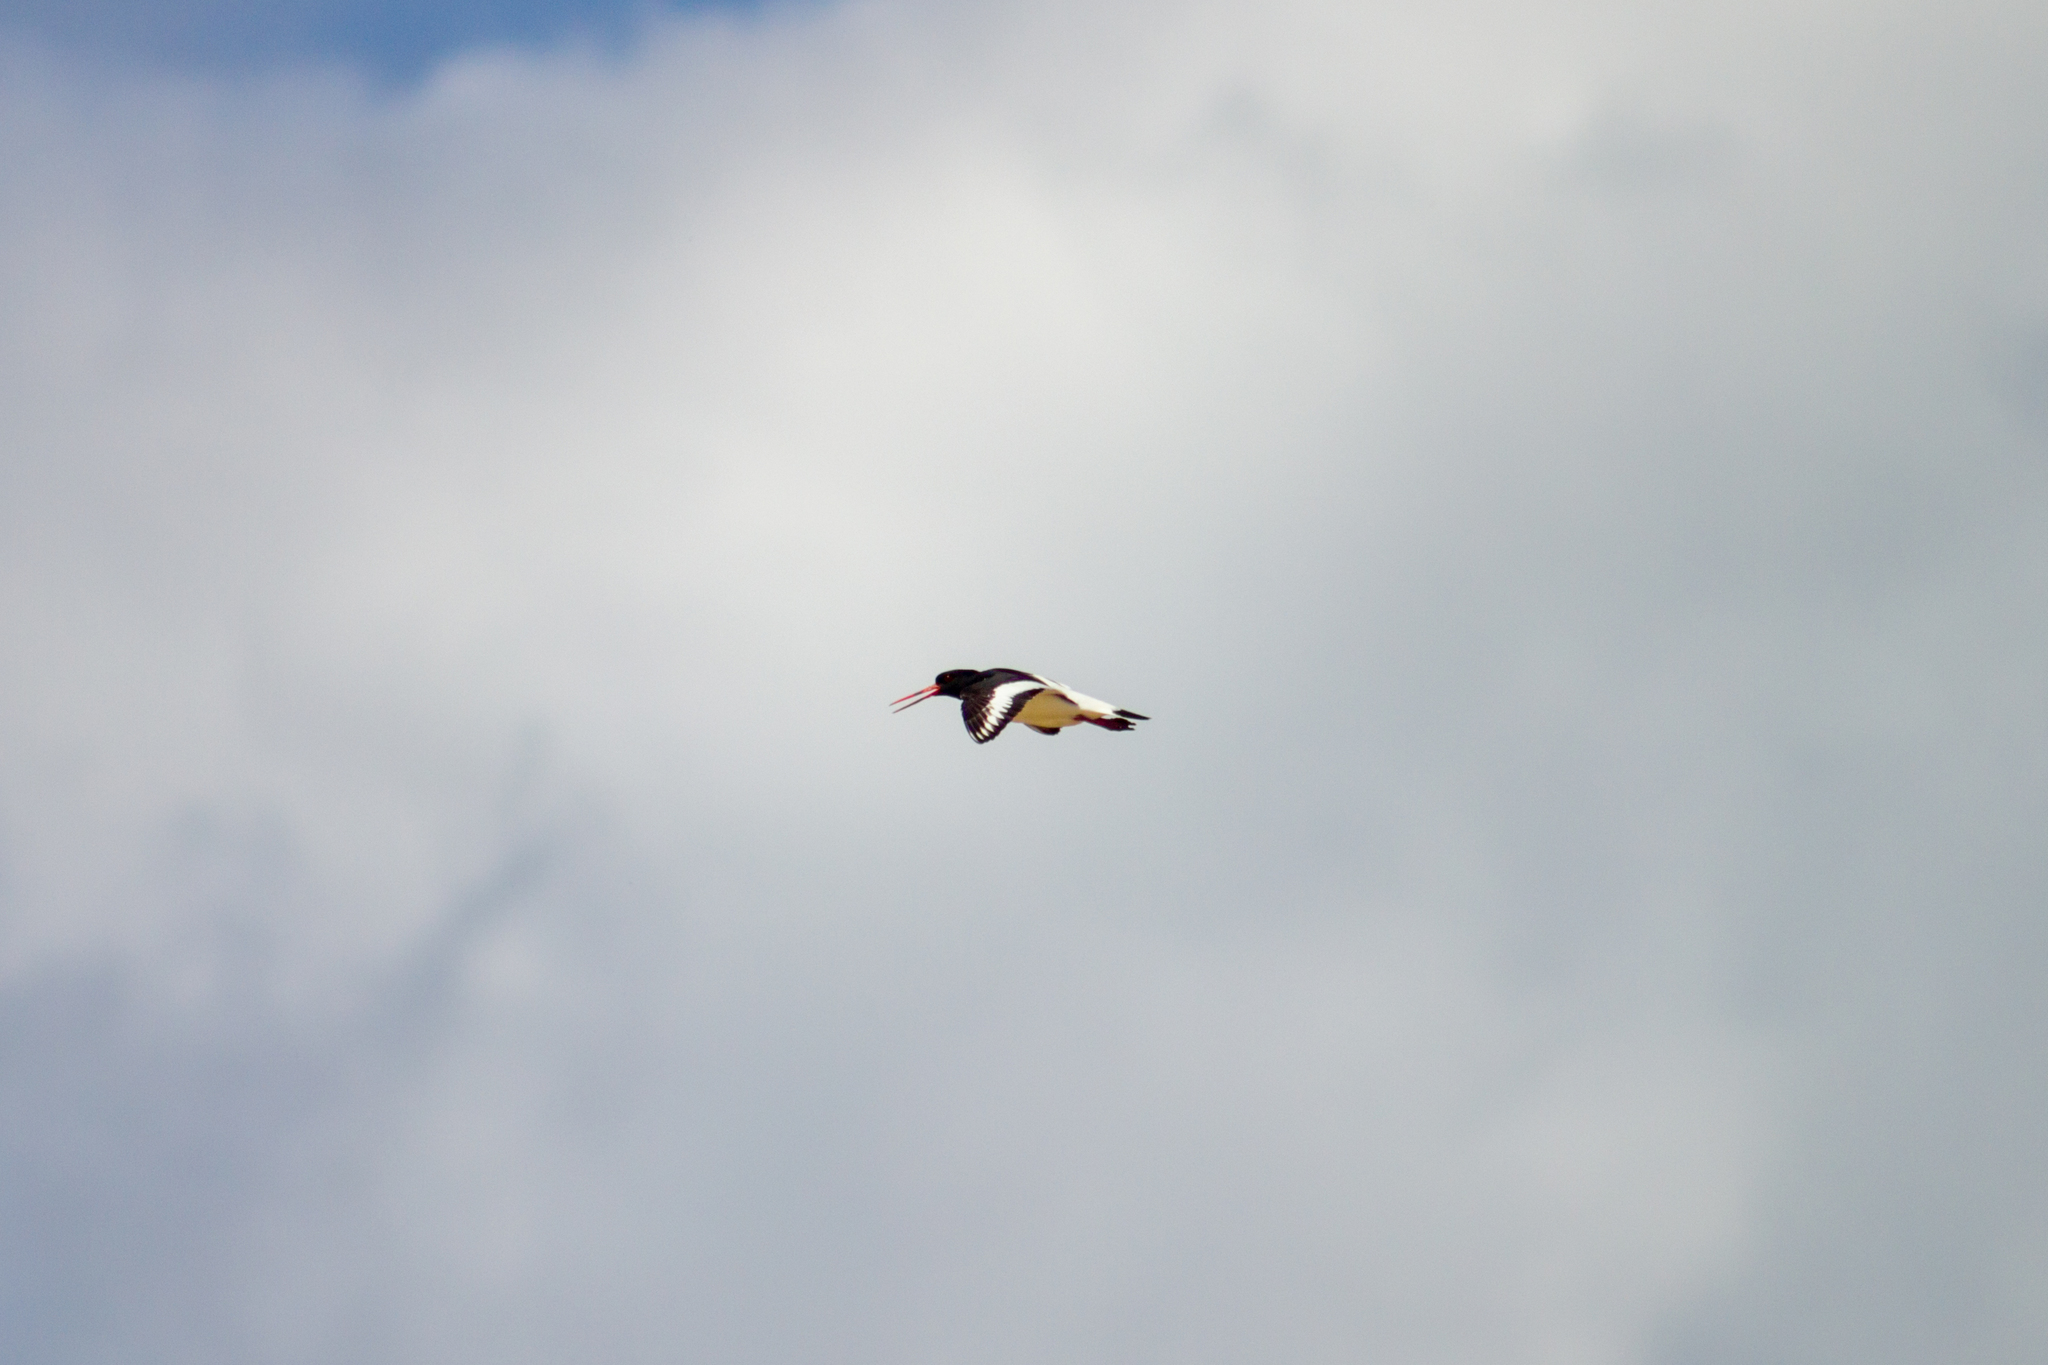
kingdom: Animalia
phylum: Chordata
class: Aves
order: Charadriiformes
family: Haematopodidae
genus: Haematopus
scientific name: Haematopus ostralegus
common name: Eurasian oystercatcher
